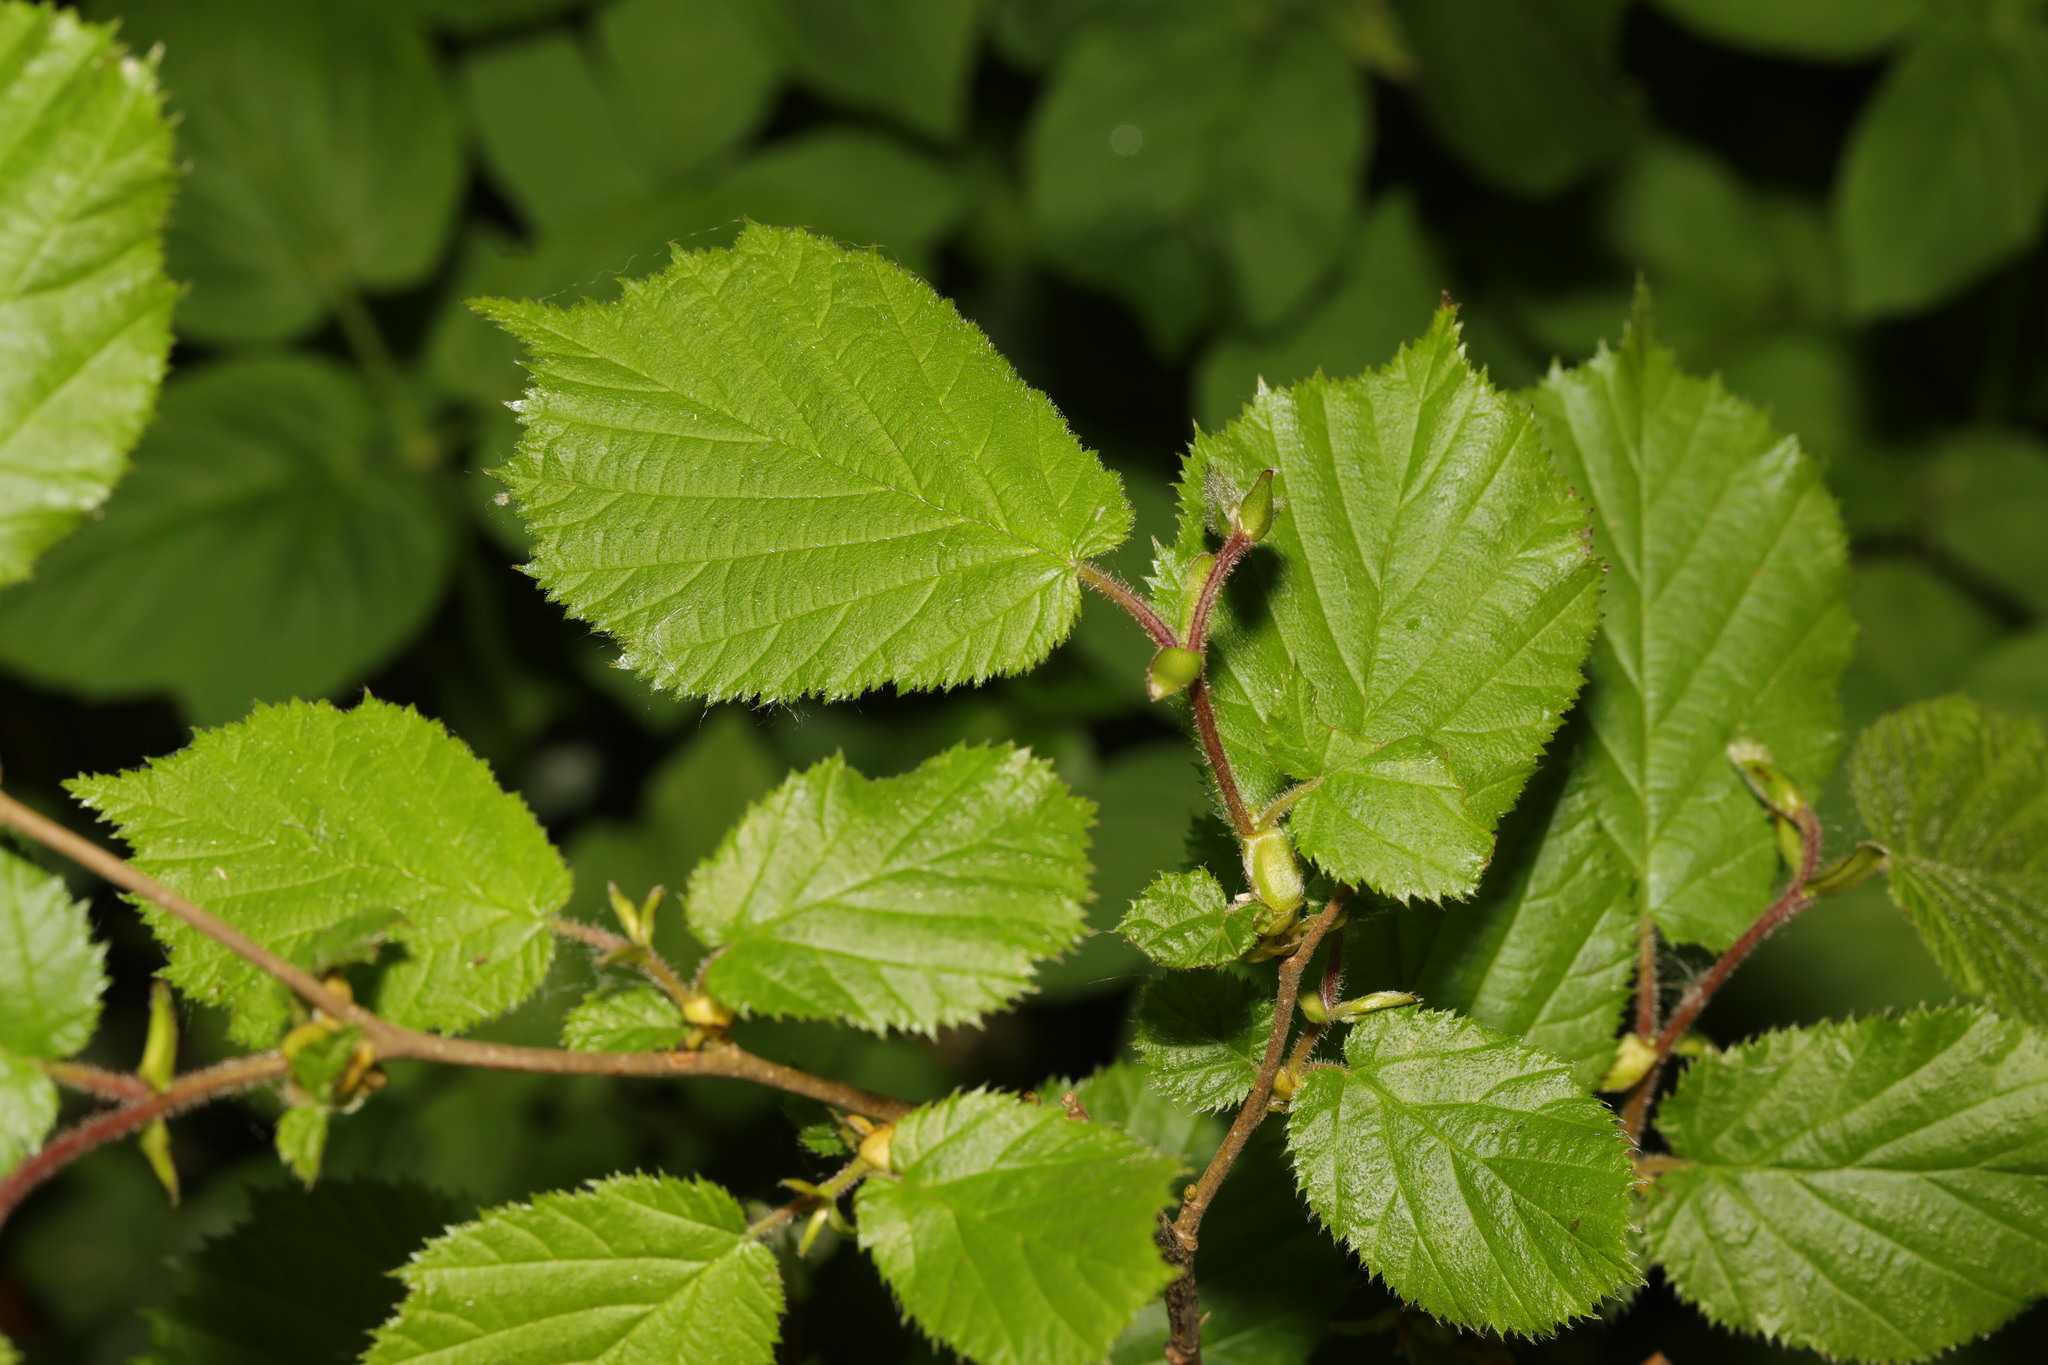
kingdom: Plantae
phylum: Tracheophyta
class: Magnoliopsida
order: Fagales
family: Betulaceae
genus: Corylus
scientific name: Corylus avellana
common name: European hazel
